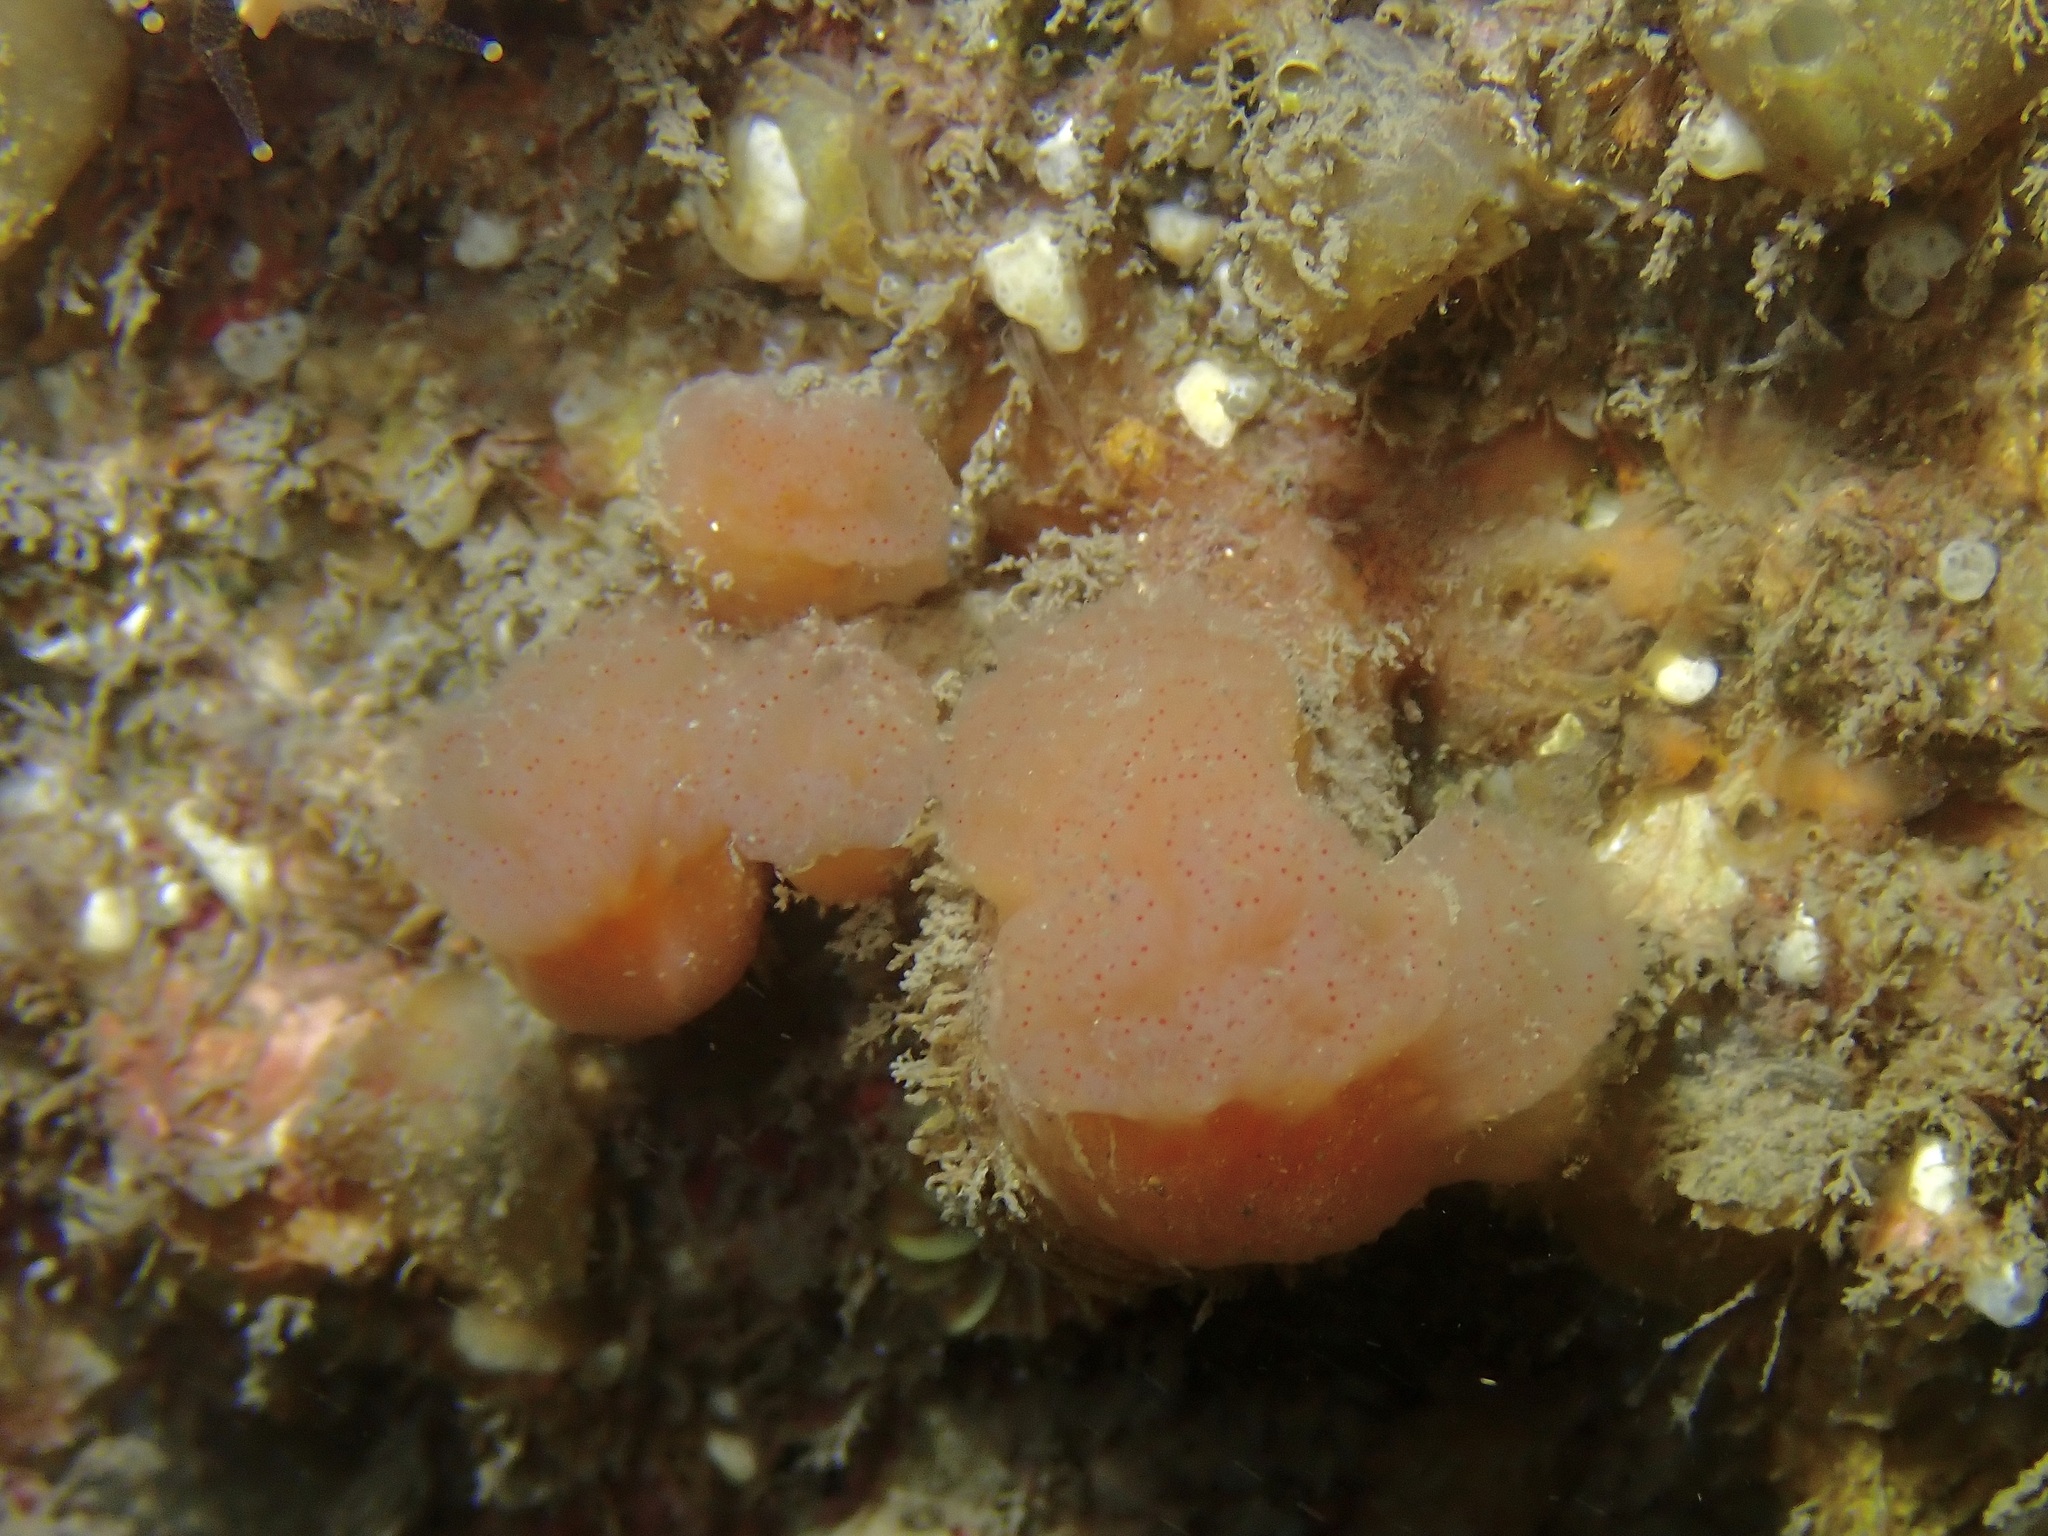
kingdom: Animalia
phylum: Chordata
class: Ascidiacea
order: Aplousobranchia
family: Polyclinidae
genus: Morchellium
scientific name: Morchellium argus
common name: Colonial sesquirt
